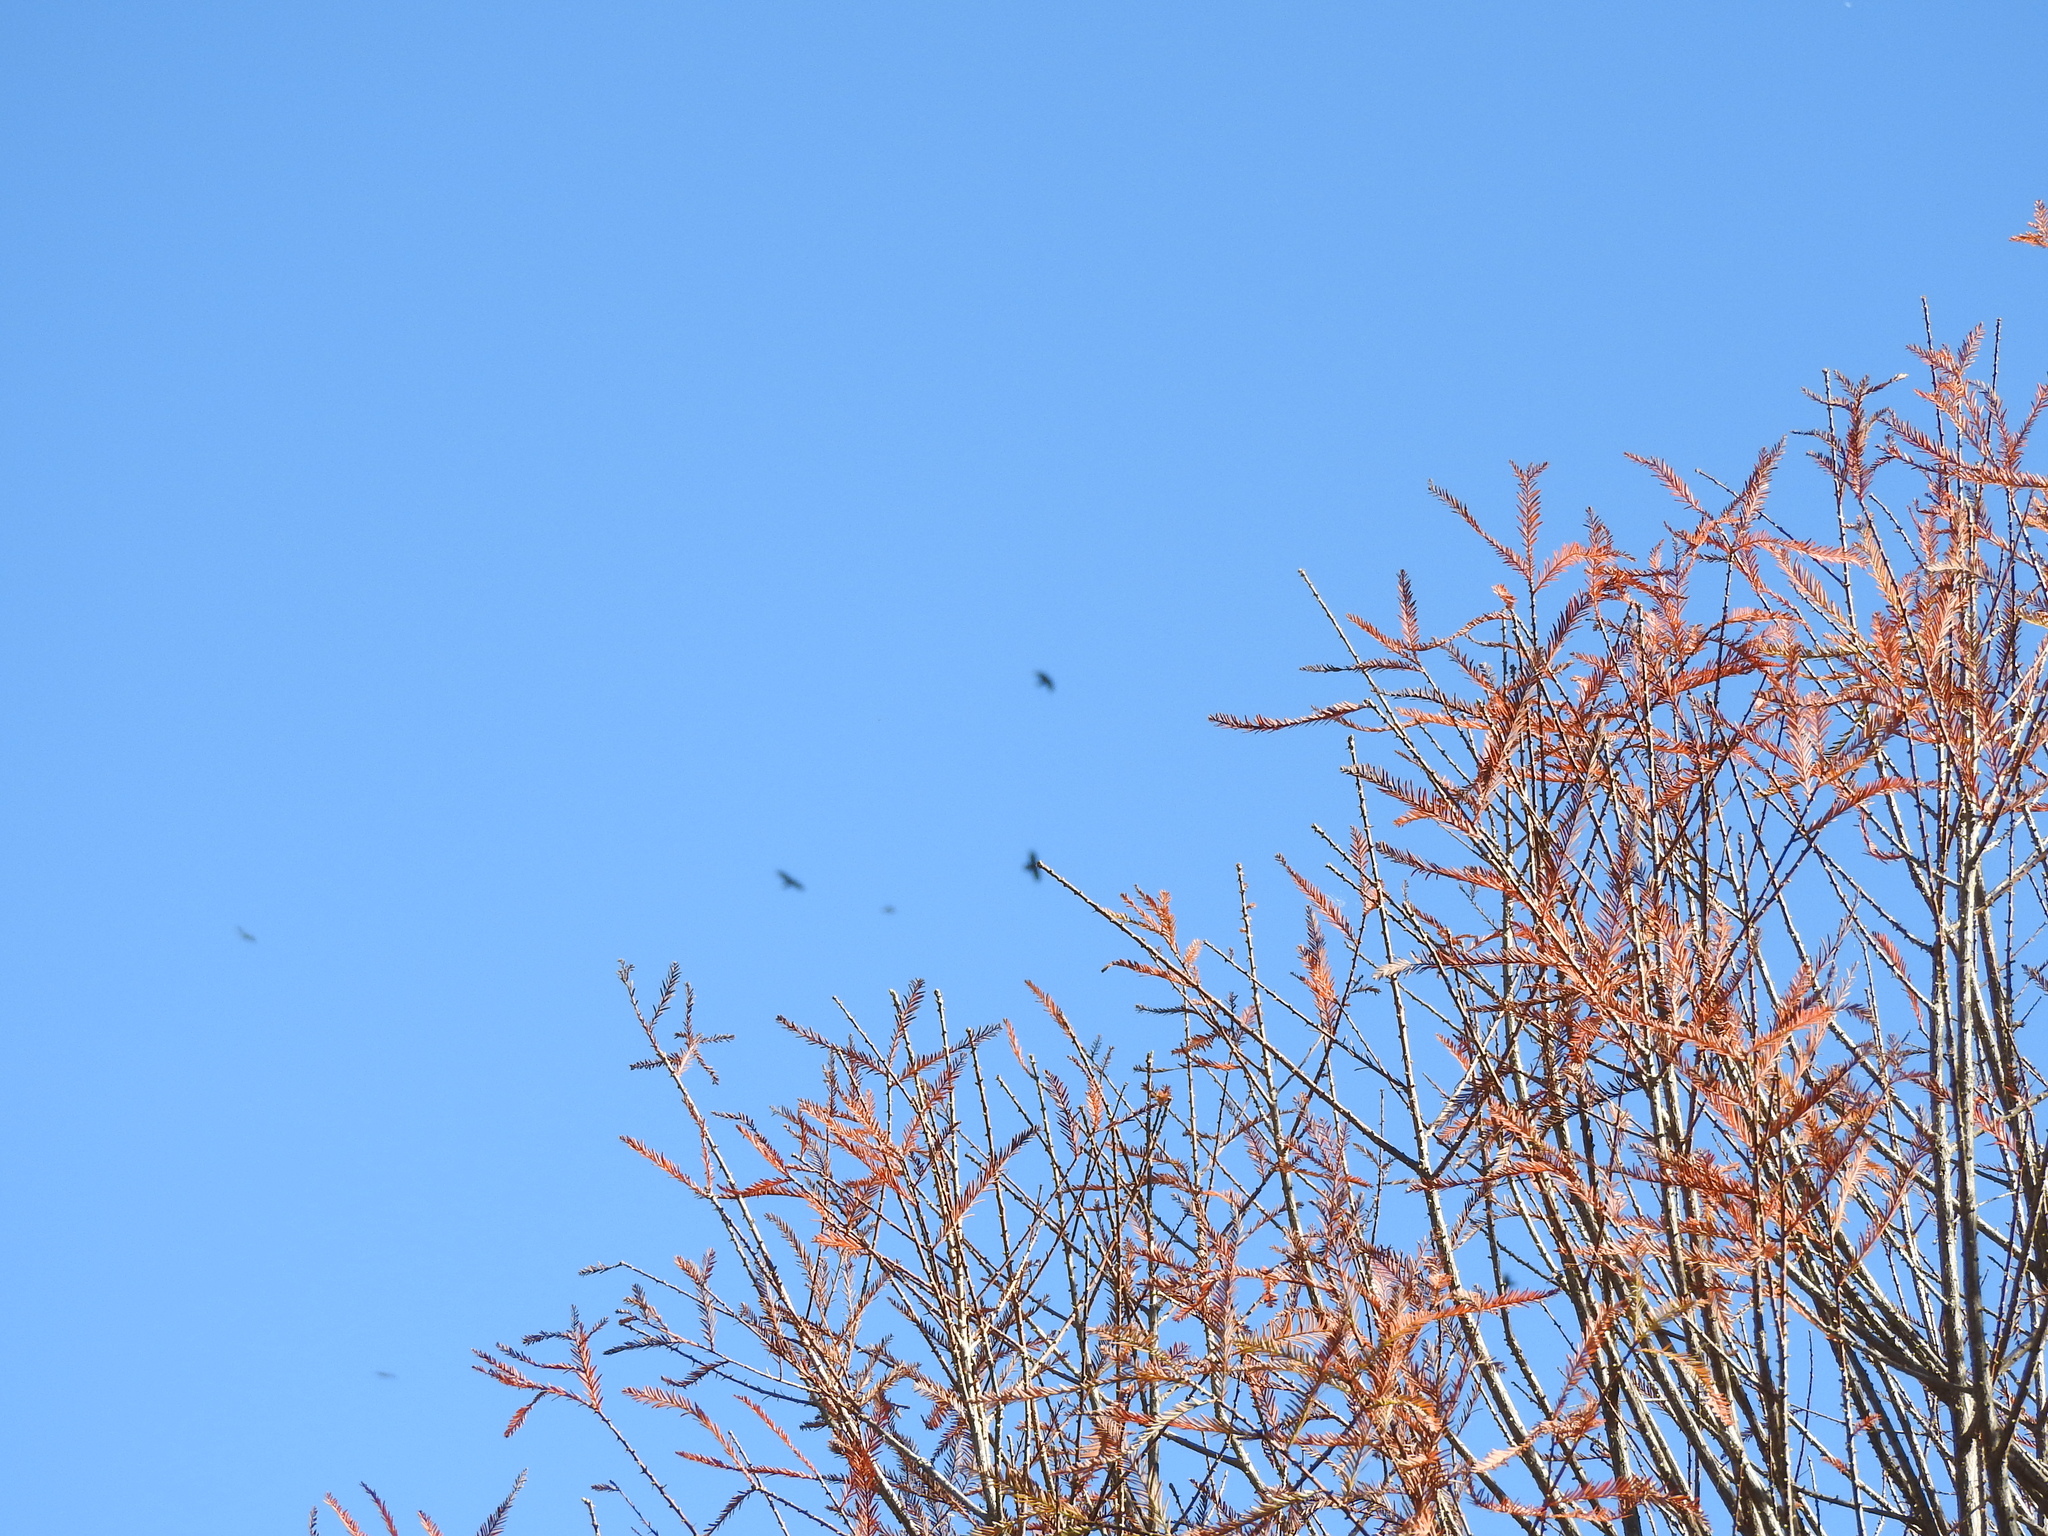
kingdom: Plantae
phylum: Tracheophyta
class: Pinopsida
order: Pinales
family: Cupressaceae
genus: Taxodium
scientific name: Taxodium mucronatum
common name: Montezume bald cypress
